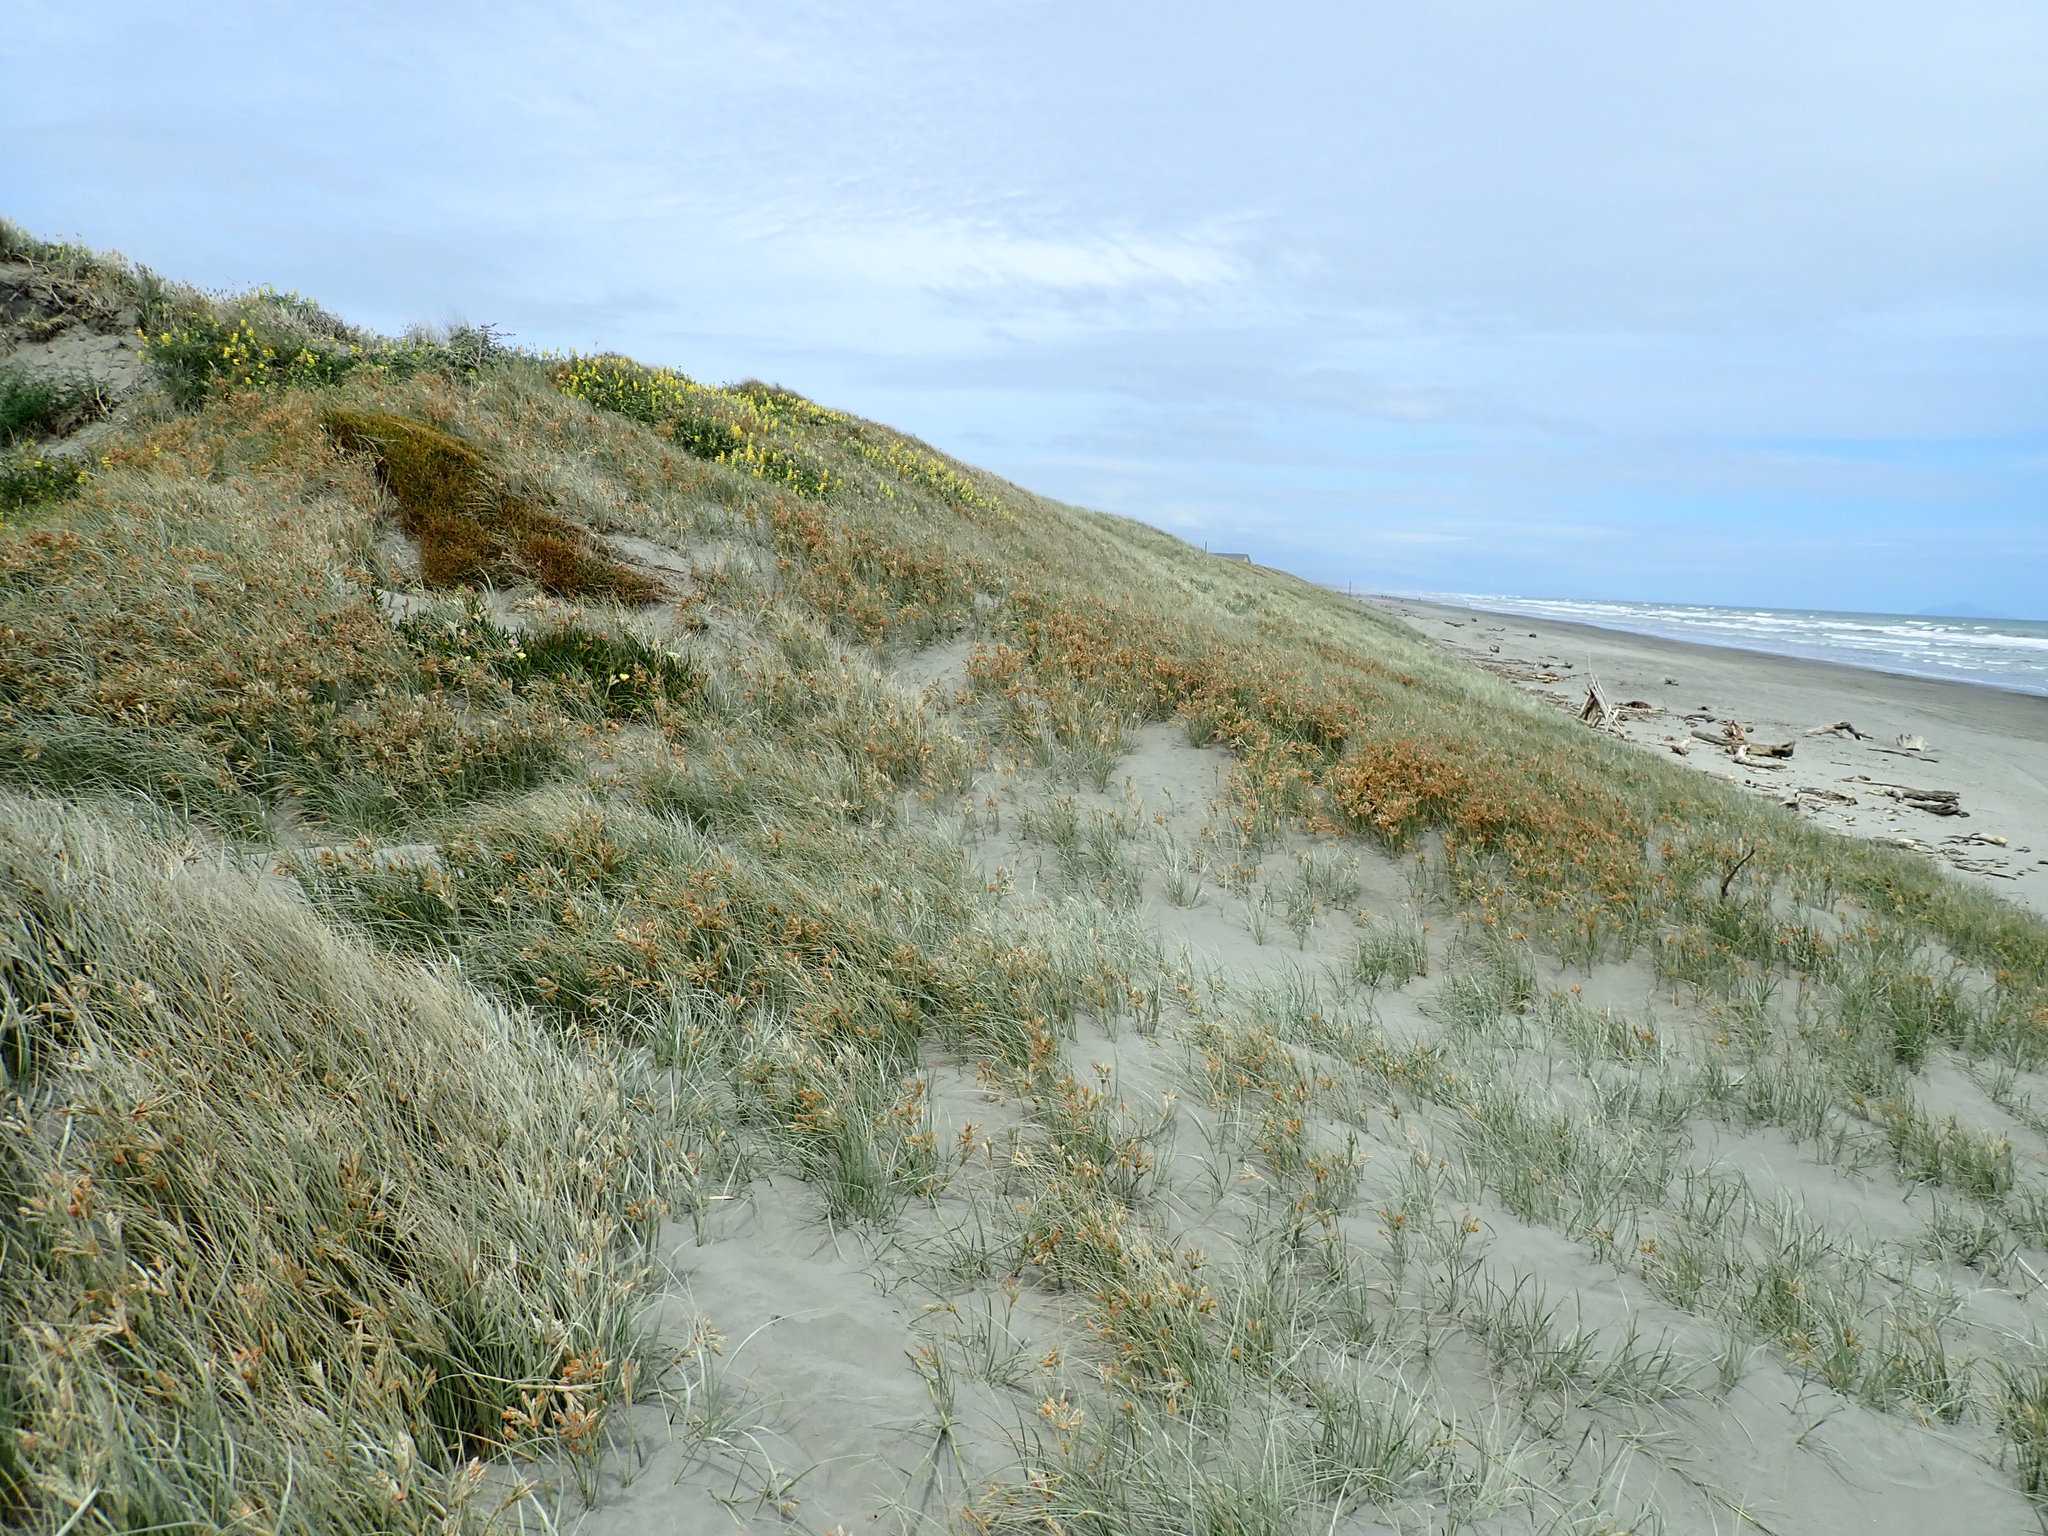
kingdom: Plantae
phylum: Tracheophyta
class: Magnoliopsida
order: Gentianales
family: Rubiaceae
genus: Coprosma
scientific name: Coprosma acerosa
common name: Sand coprosma
